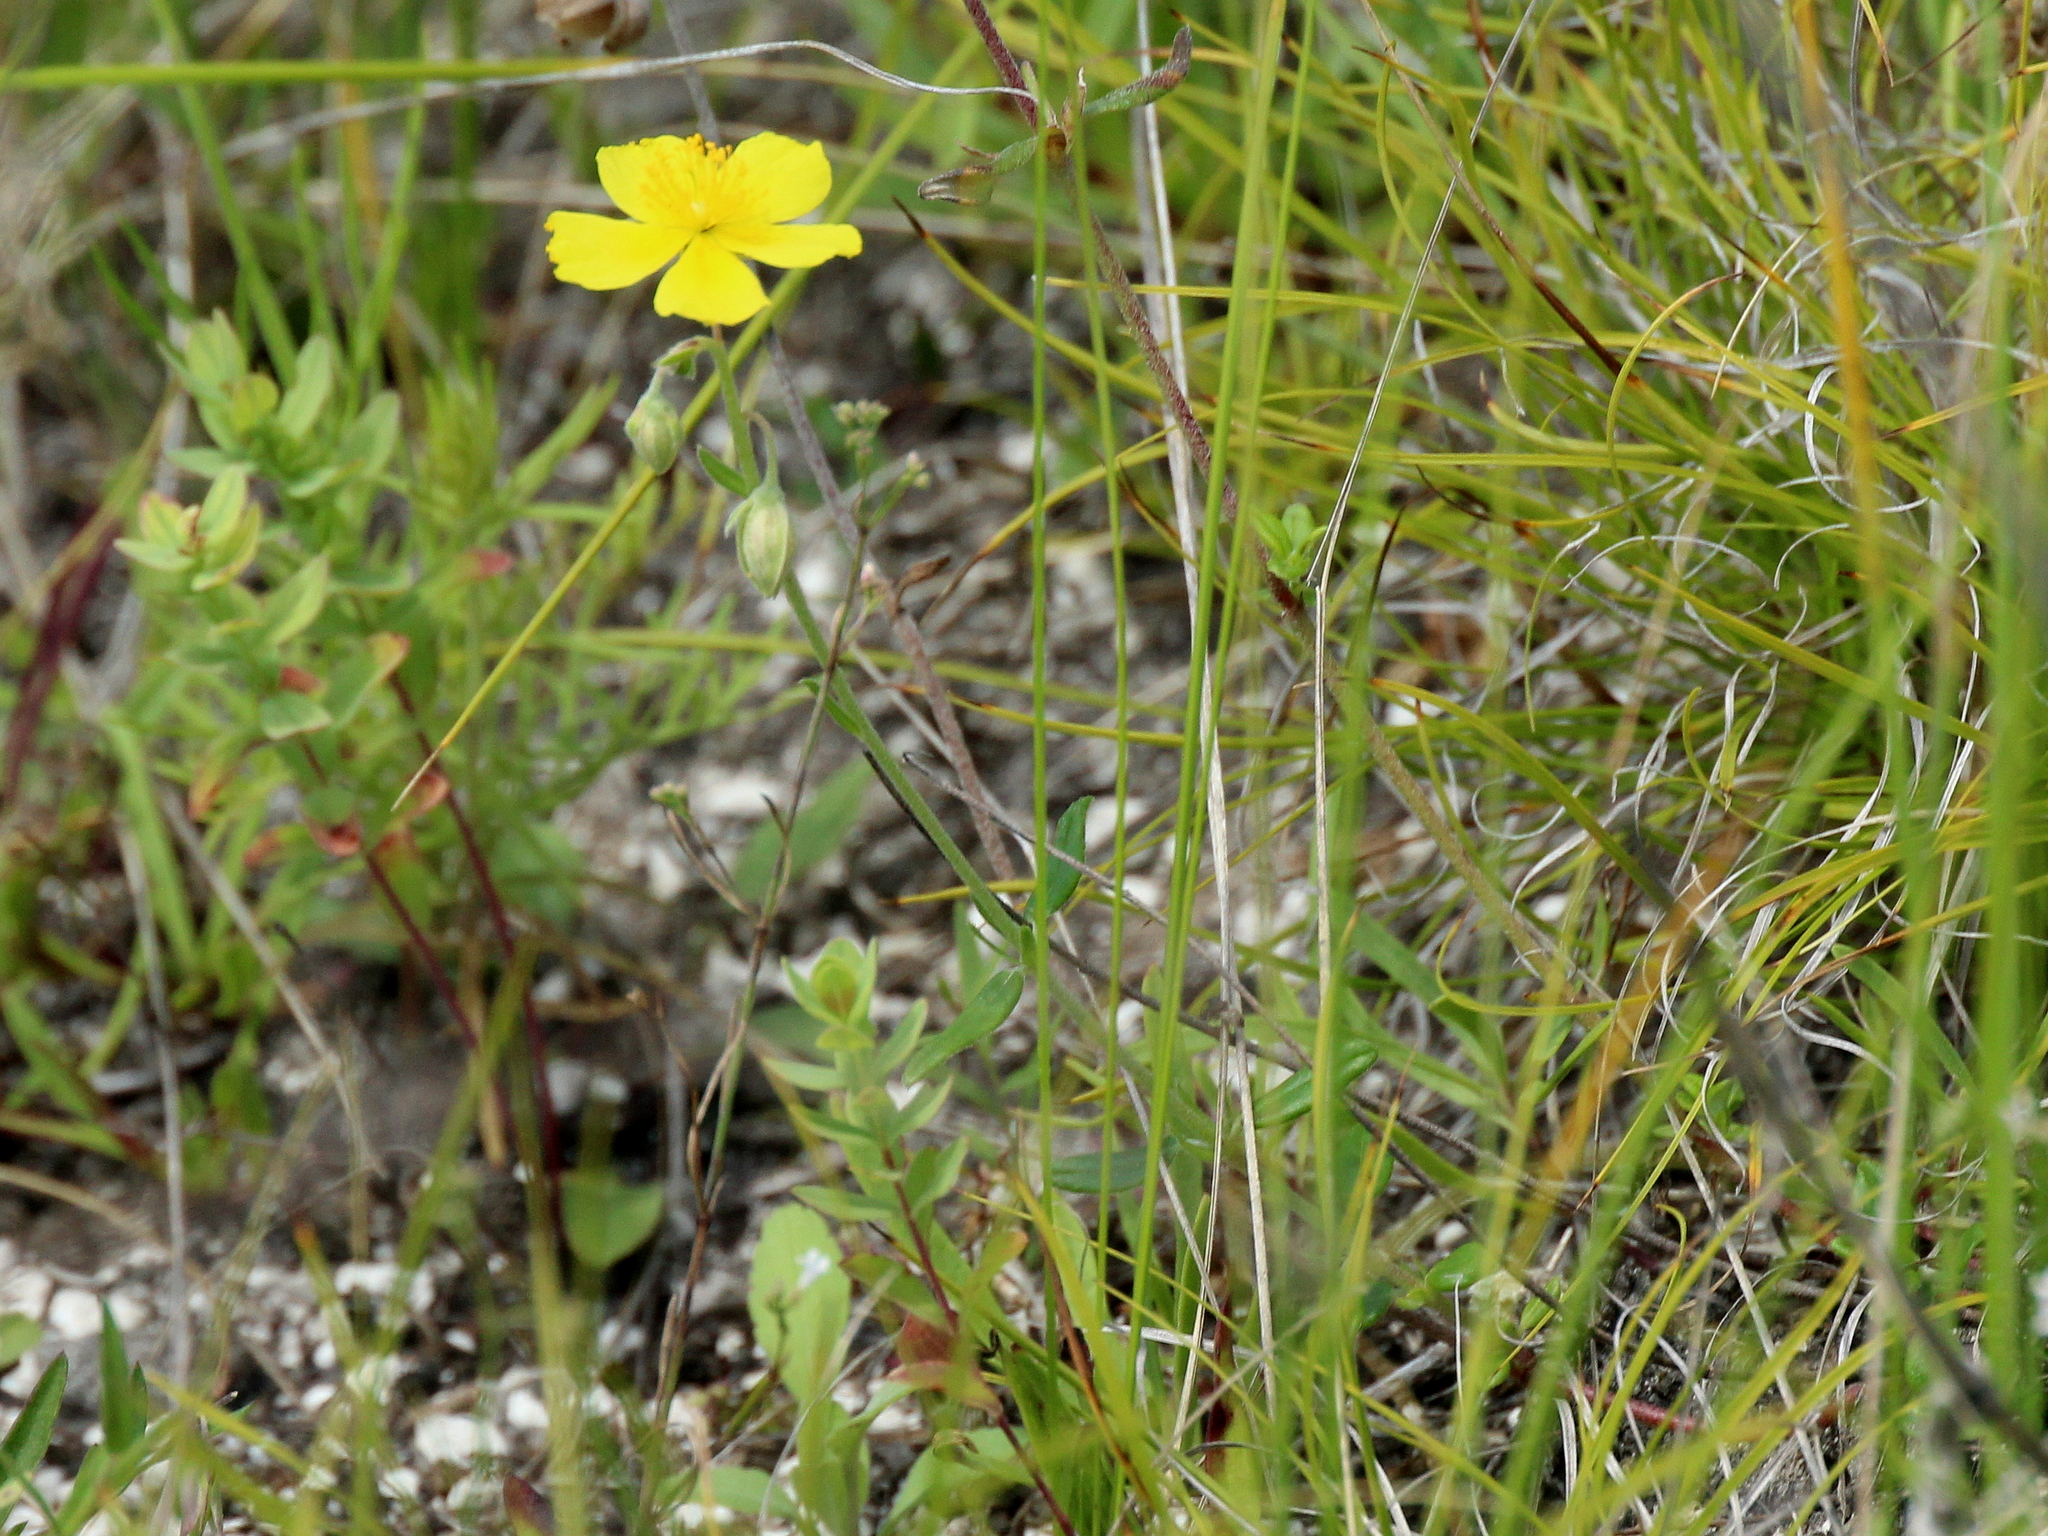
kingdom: Plantae
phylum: Tracheophyta
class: Magnoliopsida
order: Malvales
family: Cistaceae
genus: Helianthemum
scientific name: Helianthemum nummularium
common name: Common rock-rose
